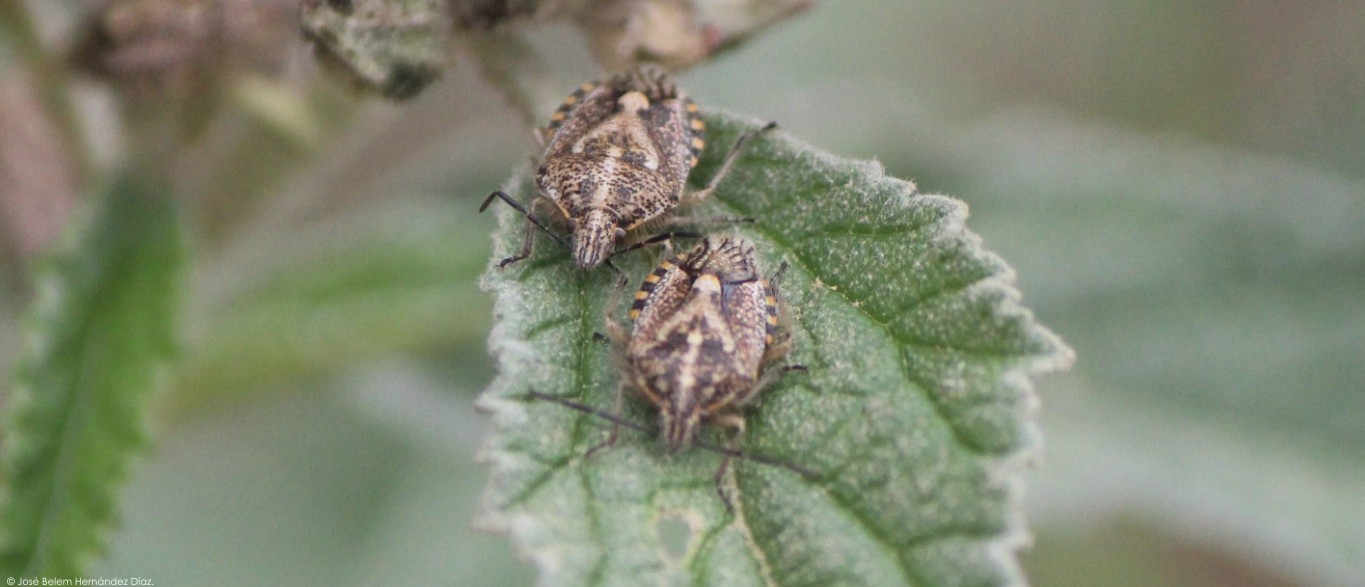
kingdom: Animalia
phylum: Arthropoda
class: Insecta
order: Hemiptera
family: Pentatomidae
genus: Agonoscelis
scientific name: Agonoscelis puberula
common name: African cluster bug
